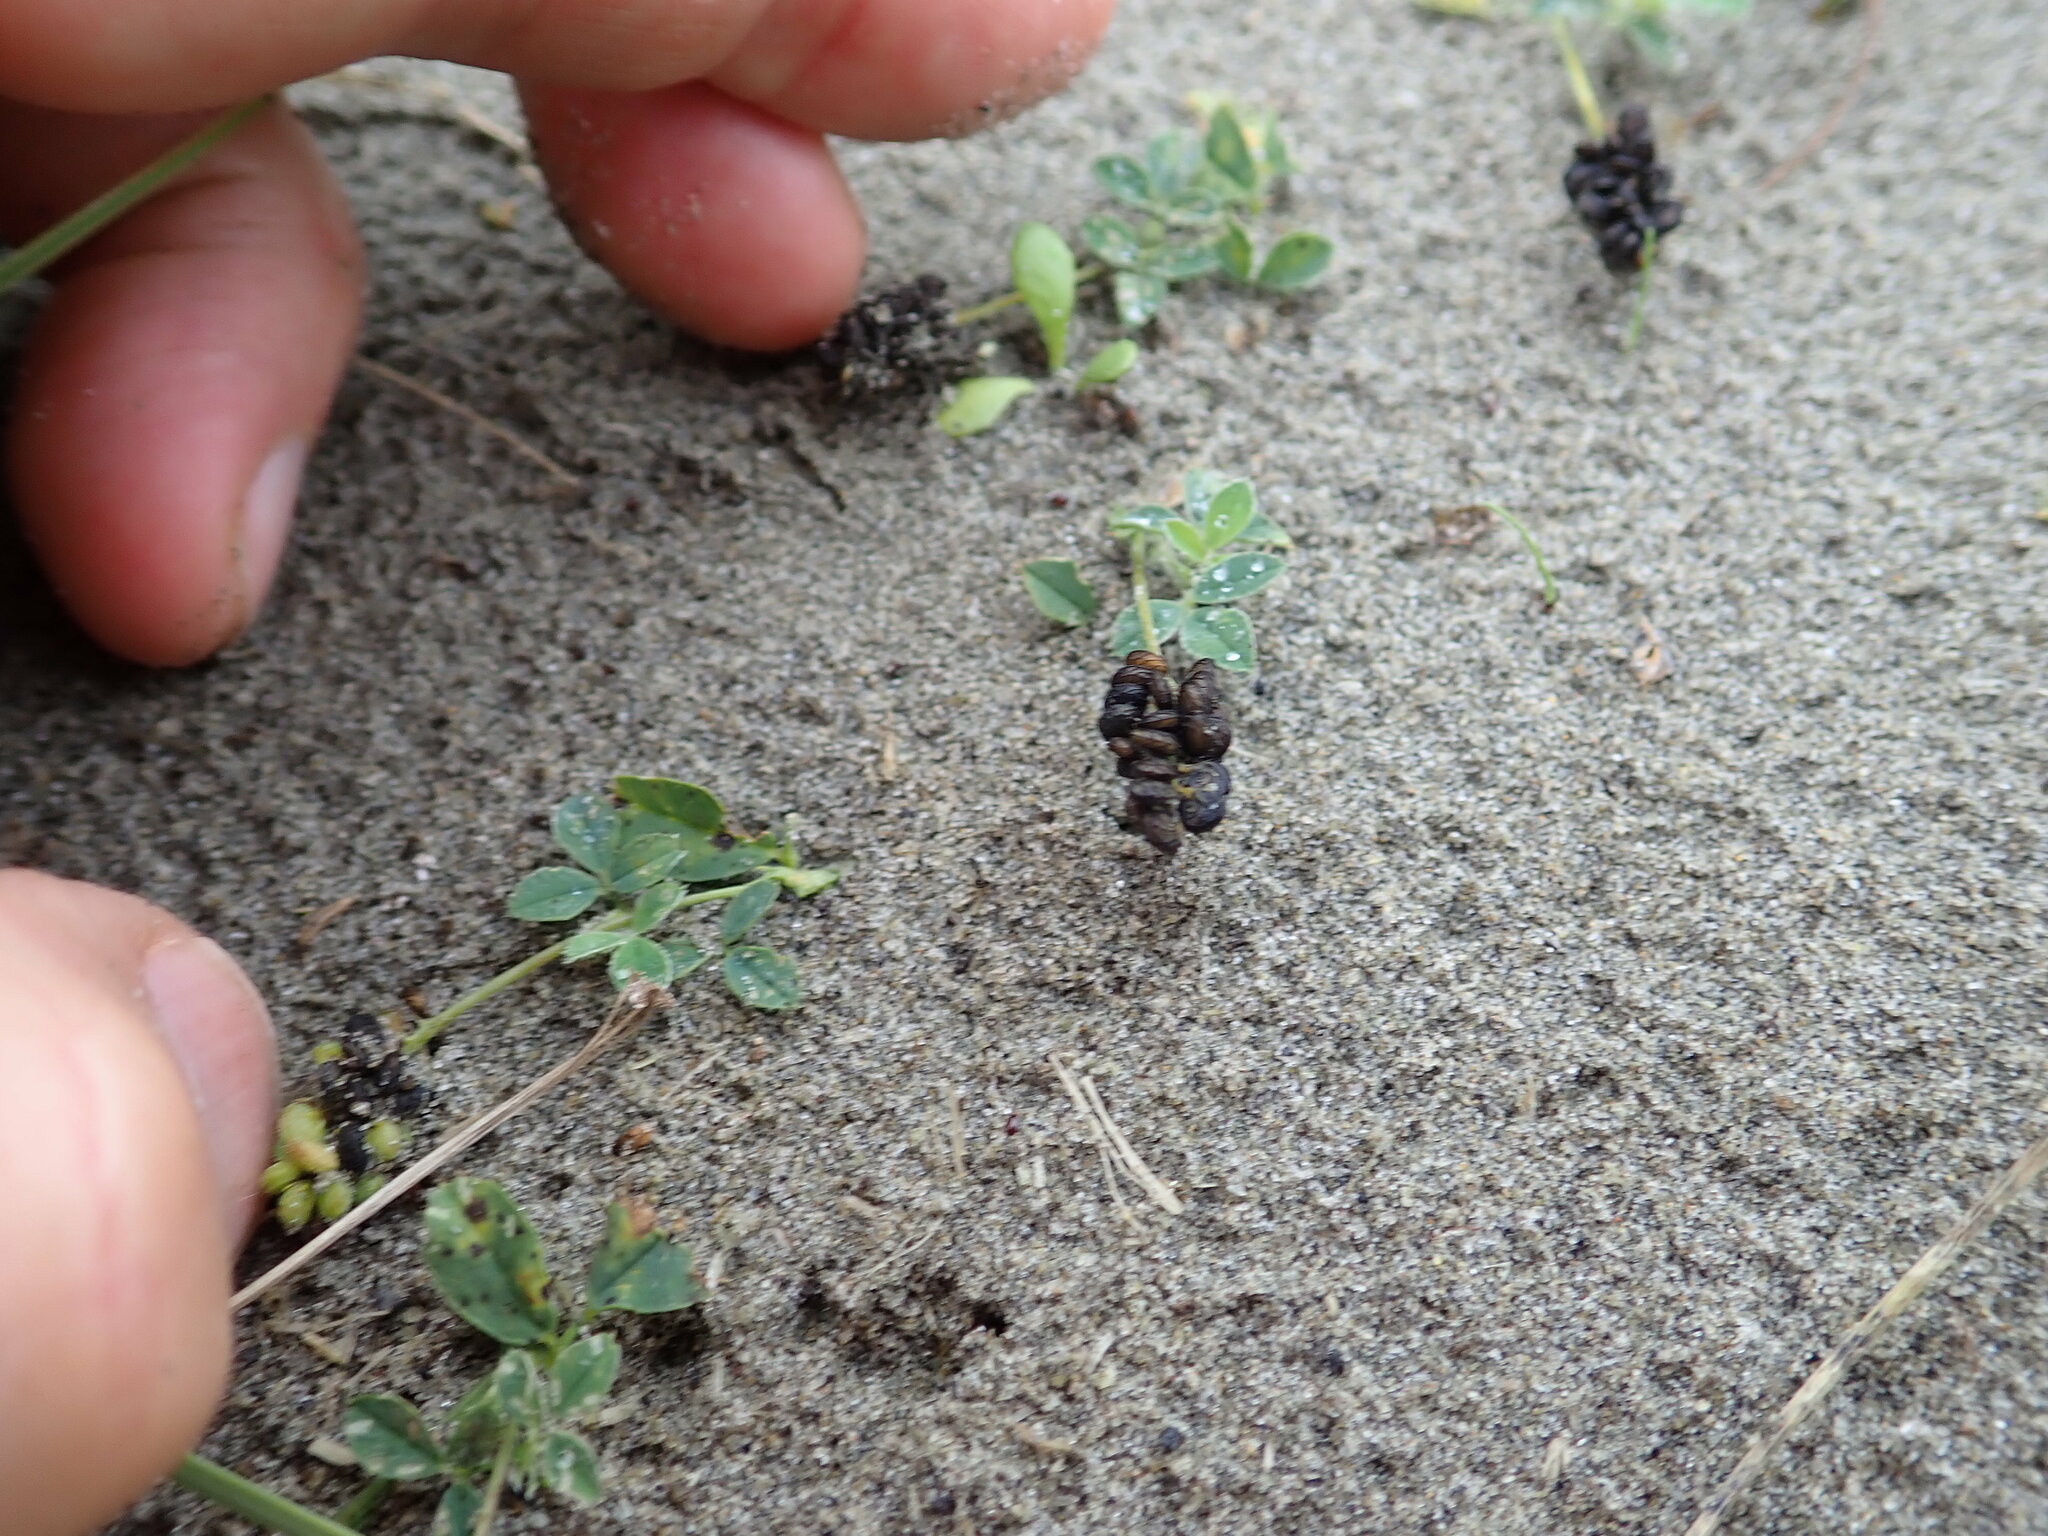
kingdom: Plantae
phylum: Tracheophyta
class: Magnoliopsida
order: Fabales
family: Fabaceae
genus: Melilotus
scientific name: Melilotus indicus
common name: Small melilot
